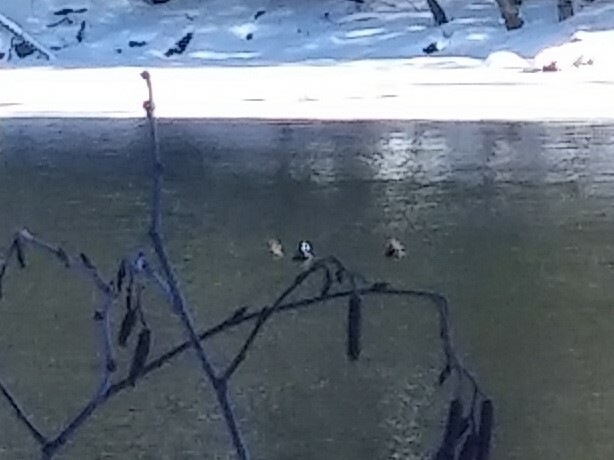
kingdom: Animalia
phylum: Chordata
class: Aves
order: Anseriformes
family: Anatidae
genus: Lophodytes
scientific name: Lophodytes cucullatus
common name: Hooded merganser
